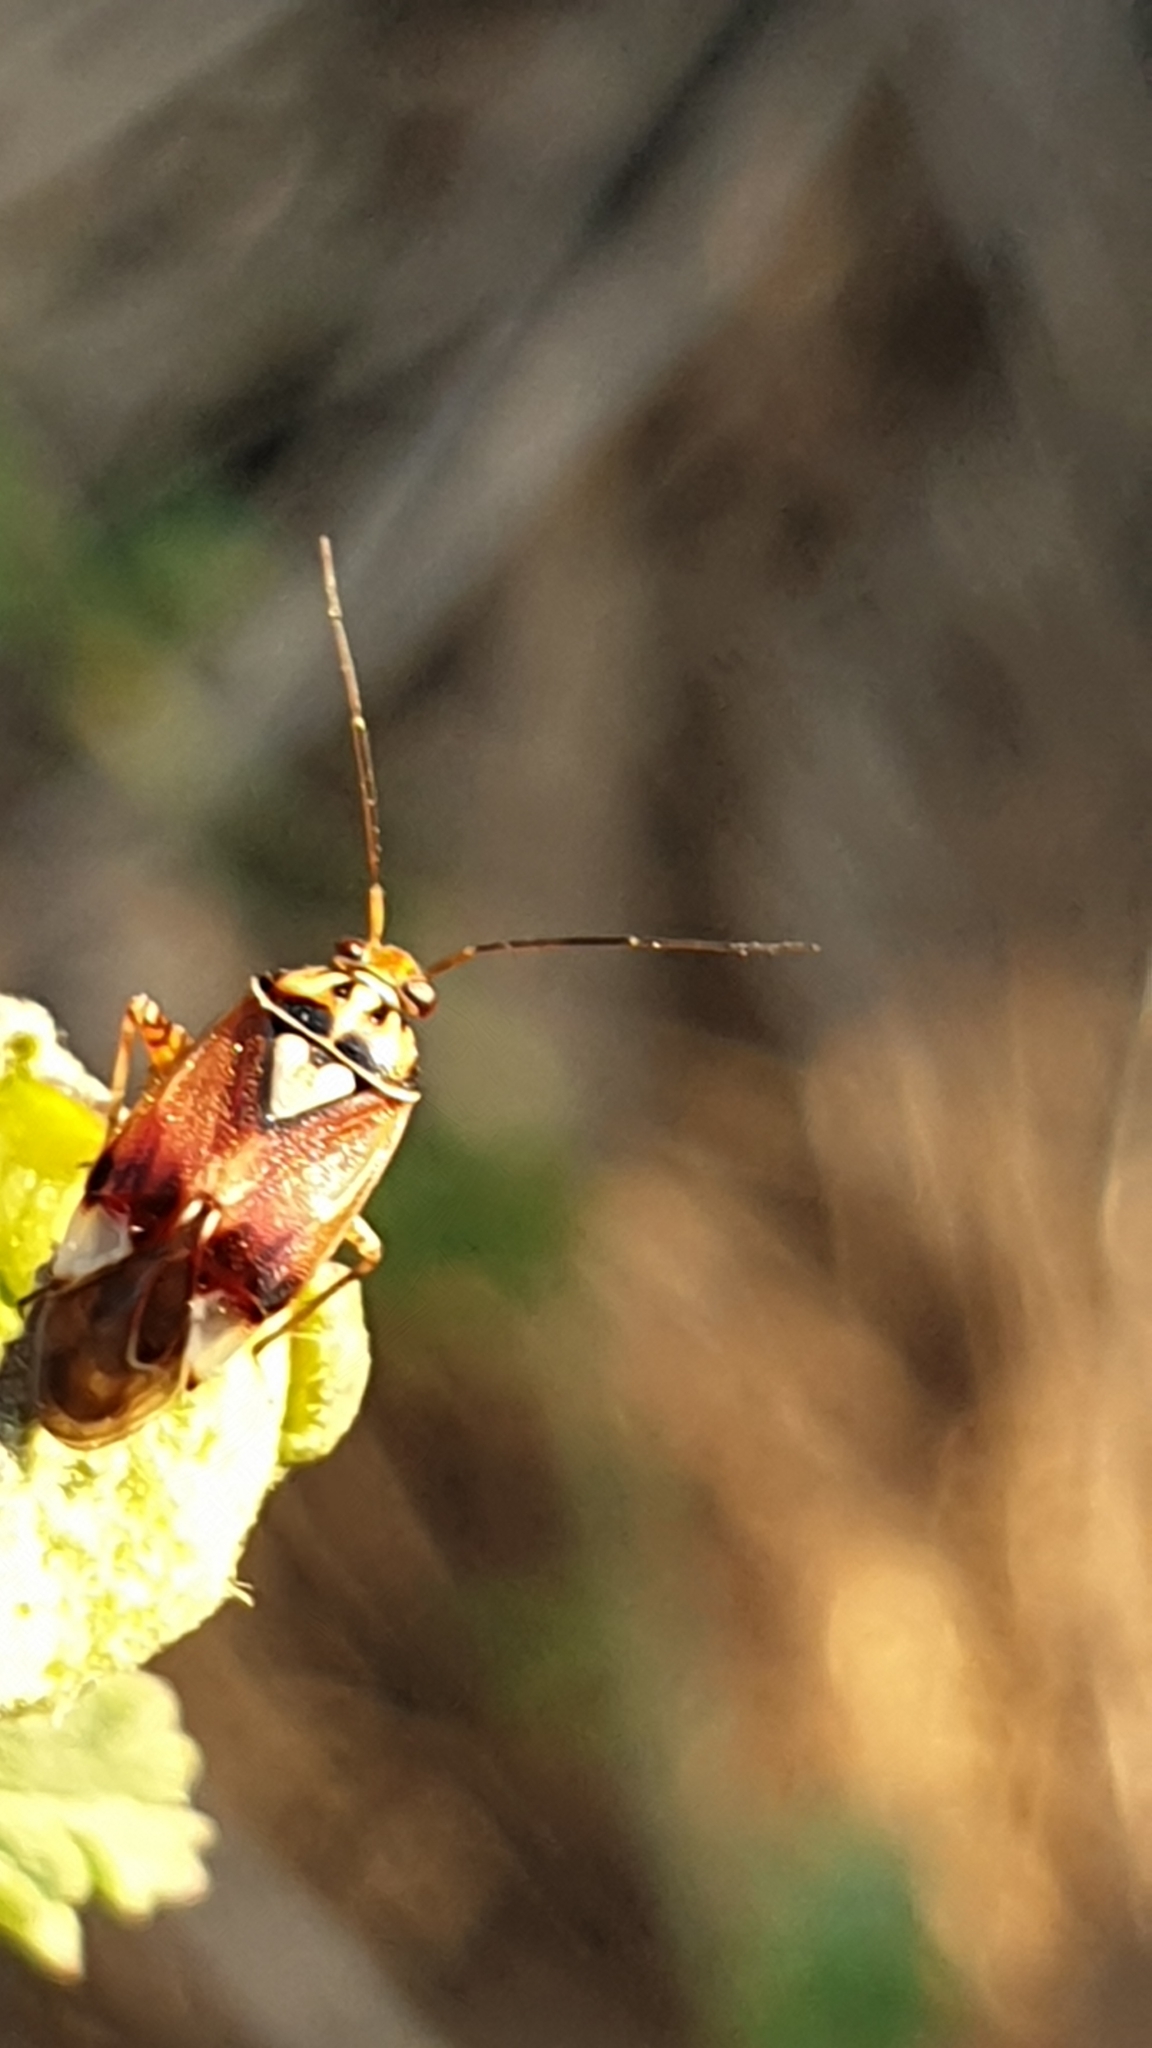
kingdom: Animalia
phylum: Arthropoda
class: Insecta
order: Hemiptera
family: Miridae
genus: Lygus
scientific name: Lygus pratensis
